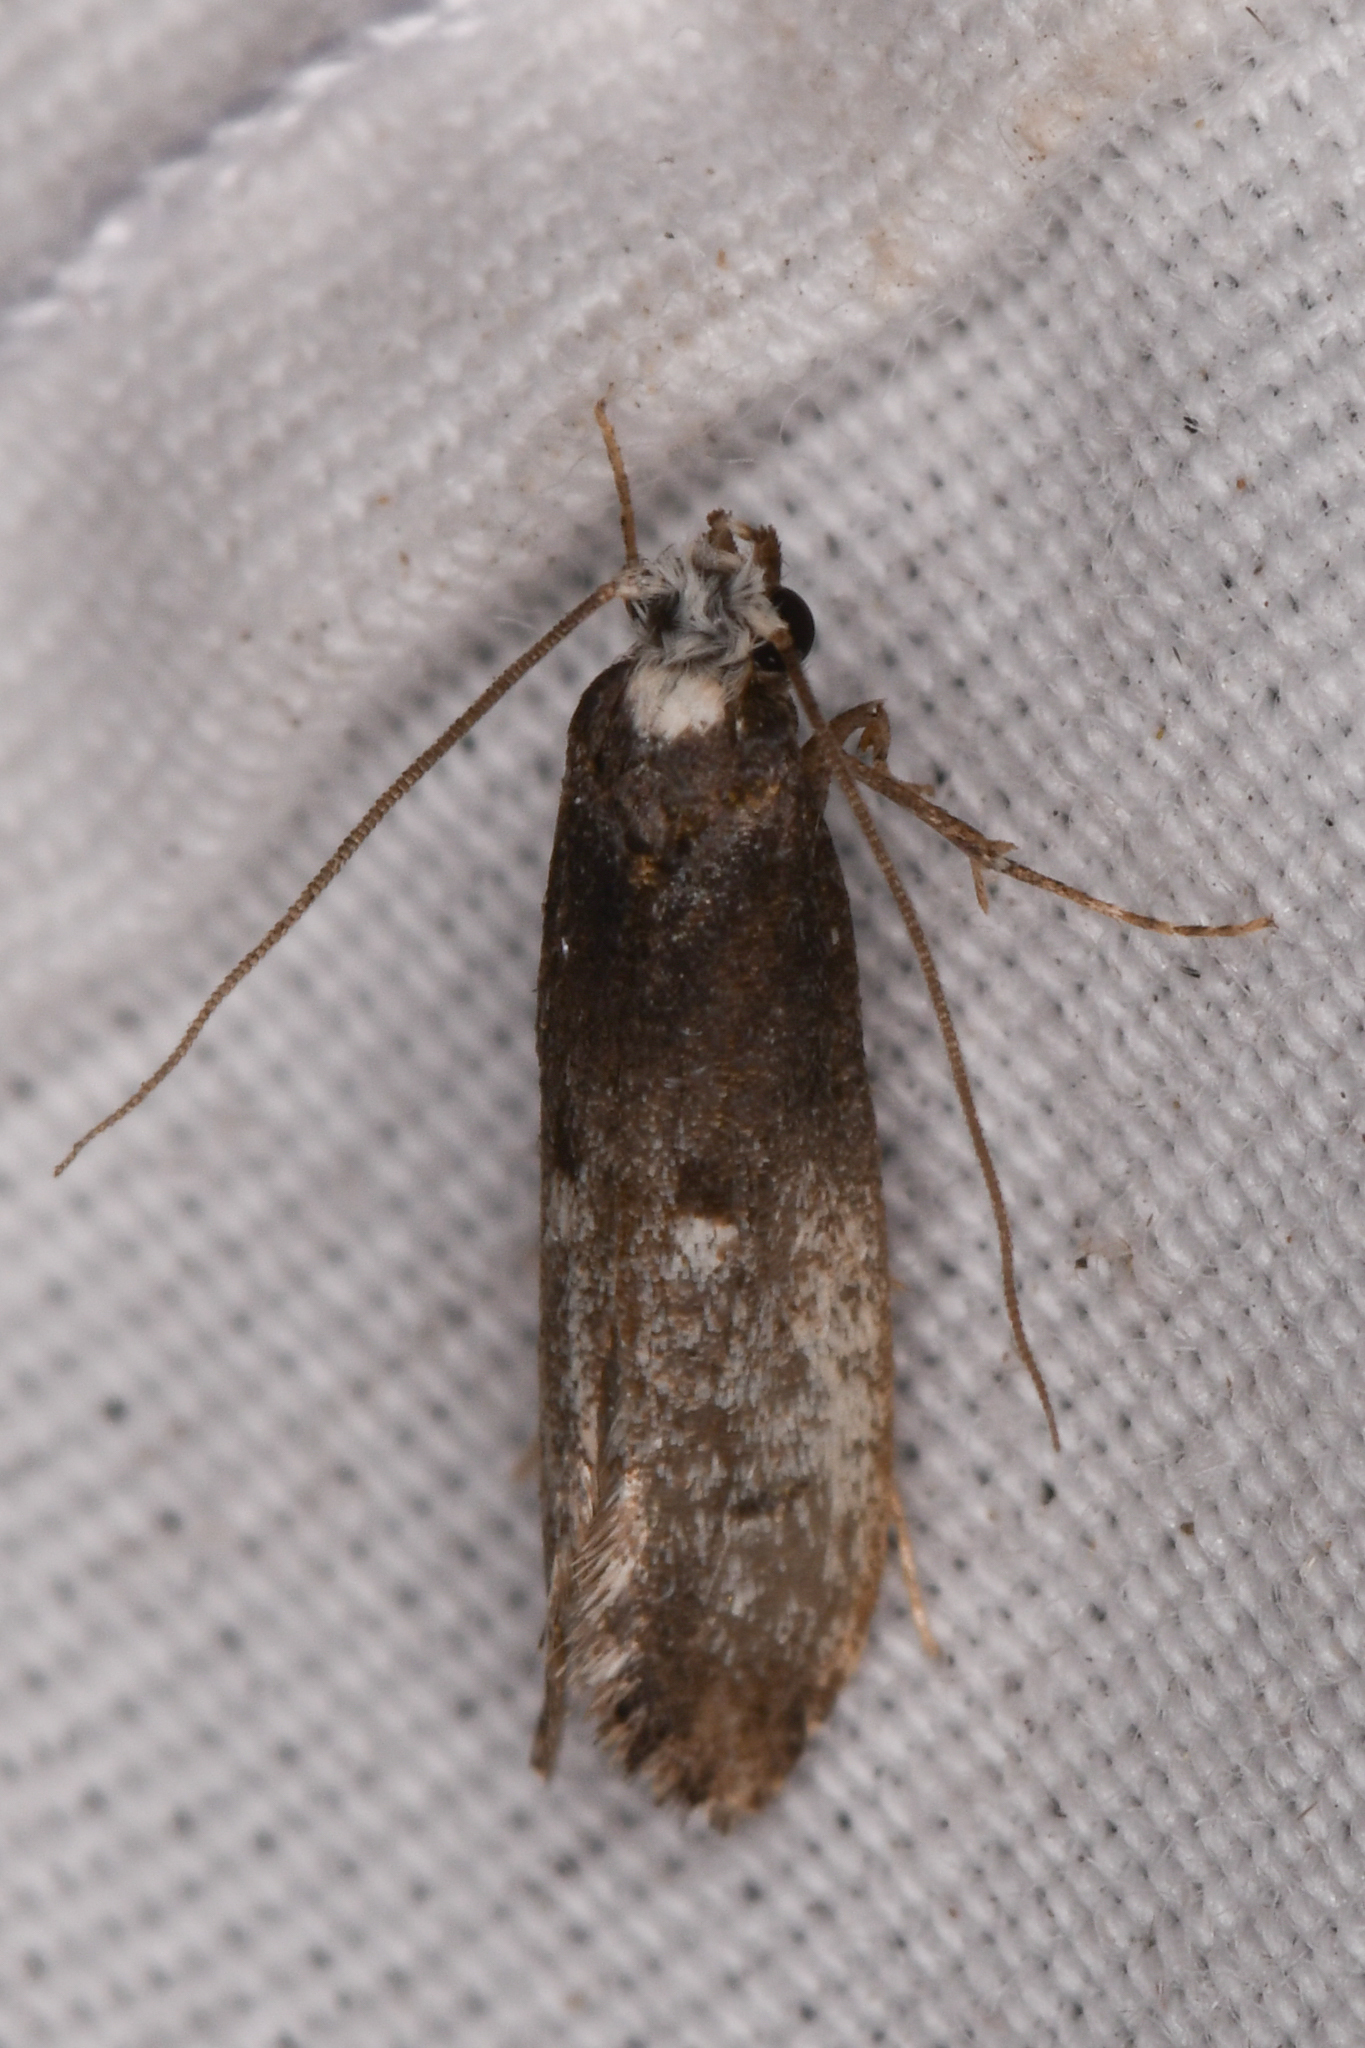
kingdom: Animalia
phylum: Arthropoda
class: Insecta
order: Lepidoptera
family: Tineidae
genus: Tinea
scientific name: Tinea occidentella
